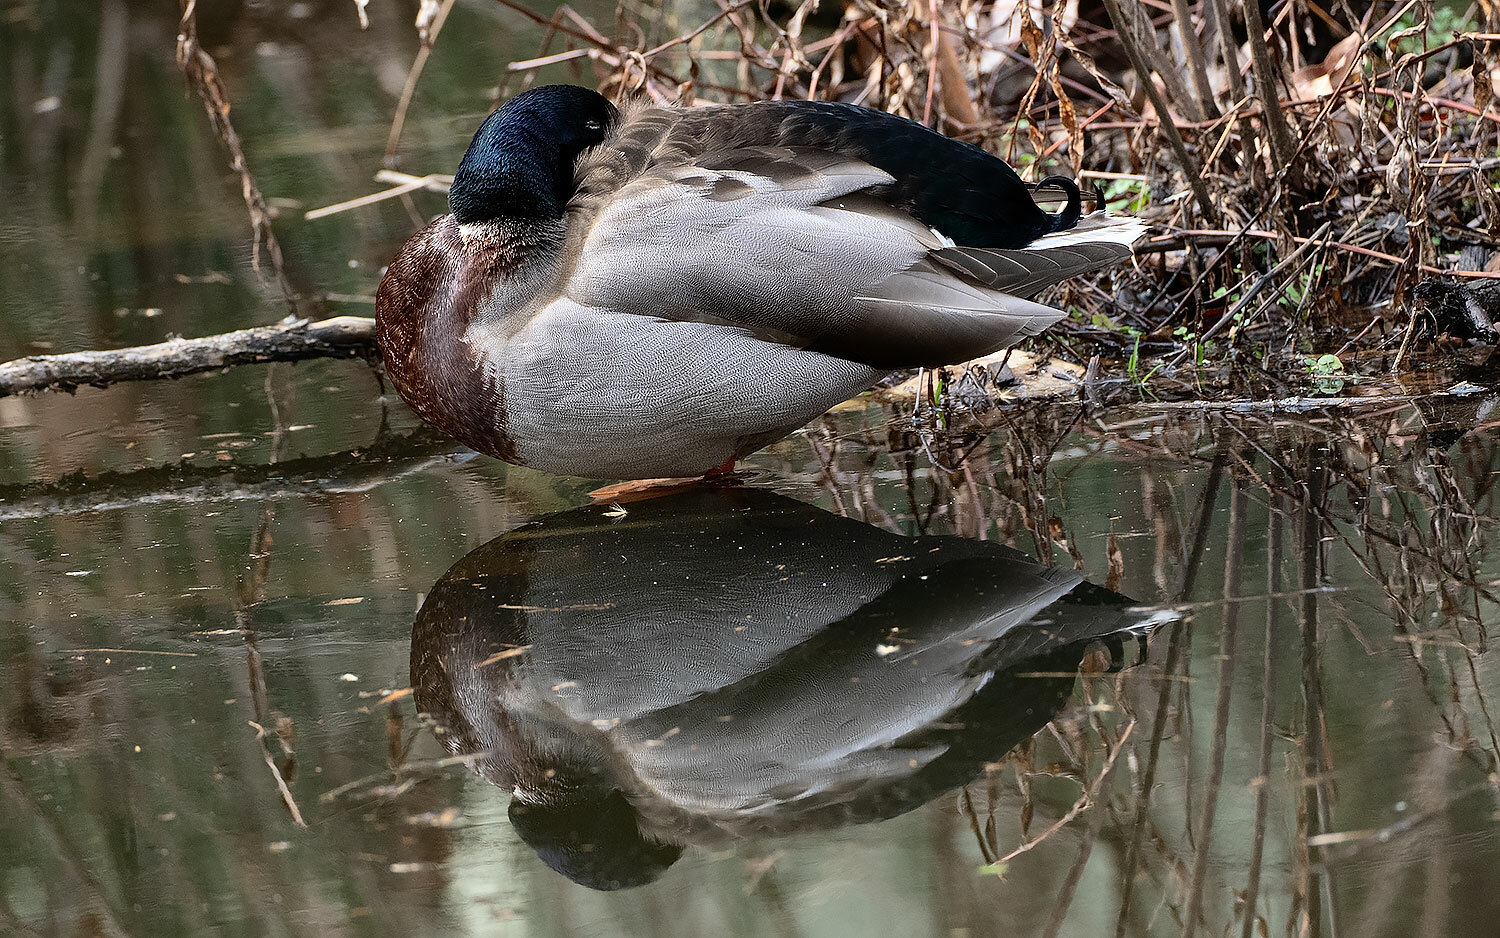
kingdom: Animalia
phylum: Chordata
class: Aves
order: Anseriformes
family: Anatidae
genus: Anas
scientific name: Anas platyrhynchos
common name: Mallard
